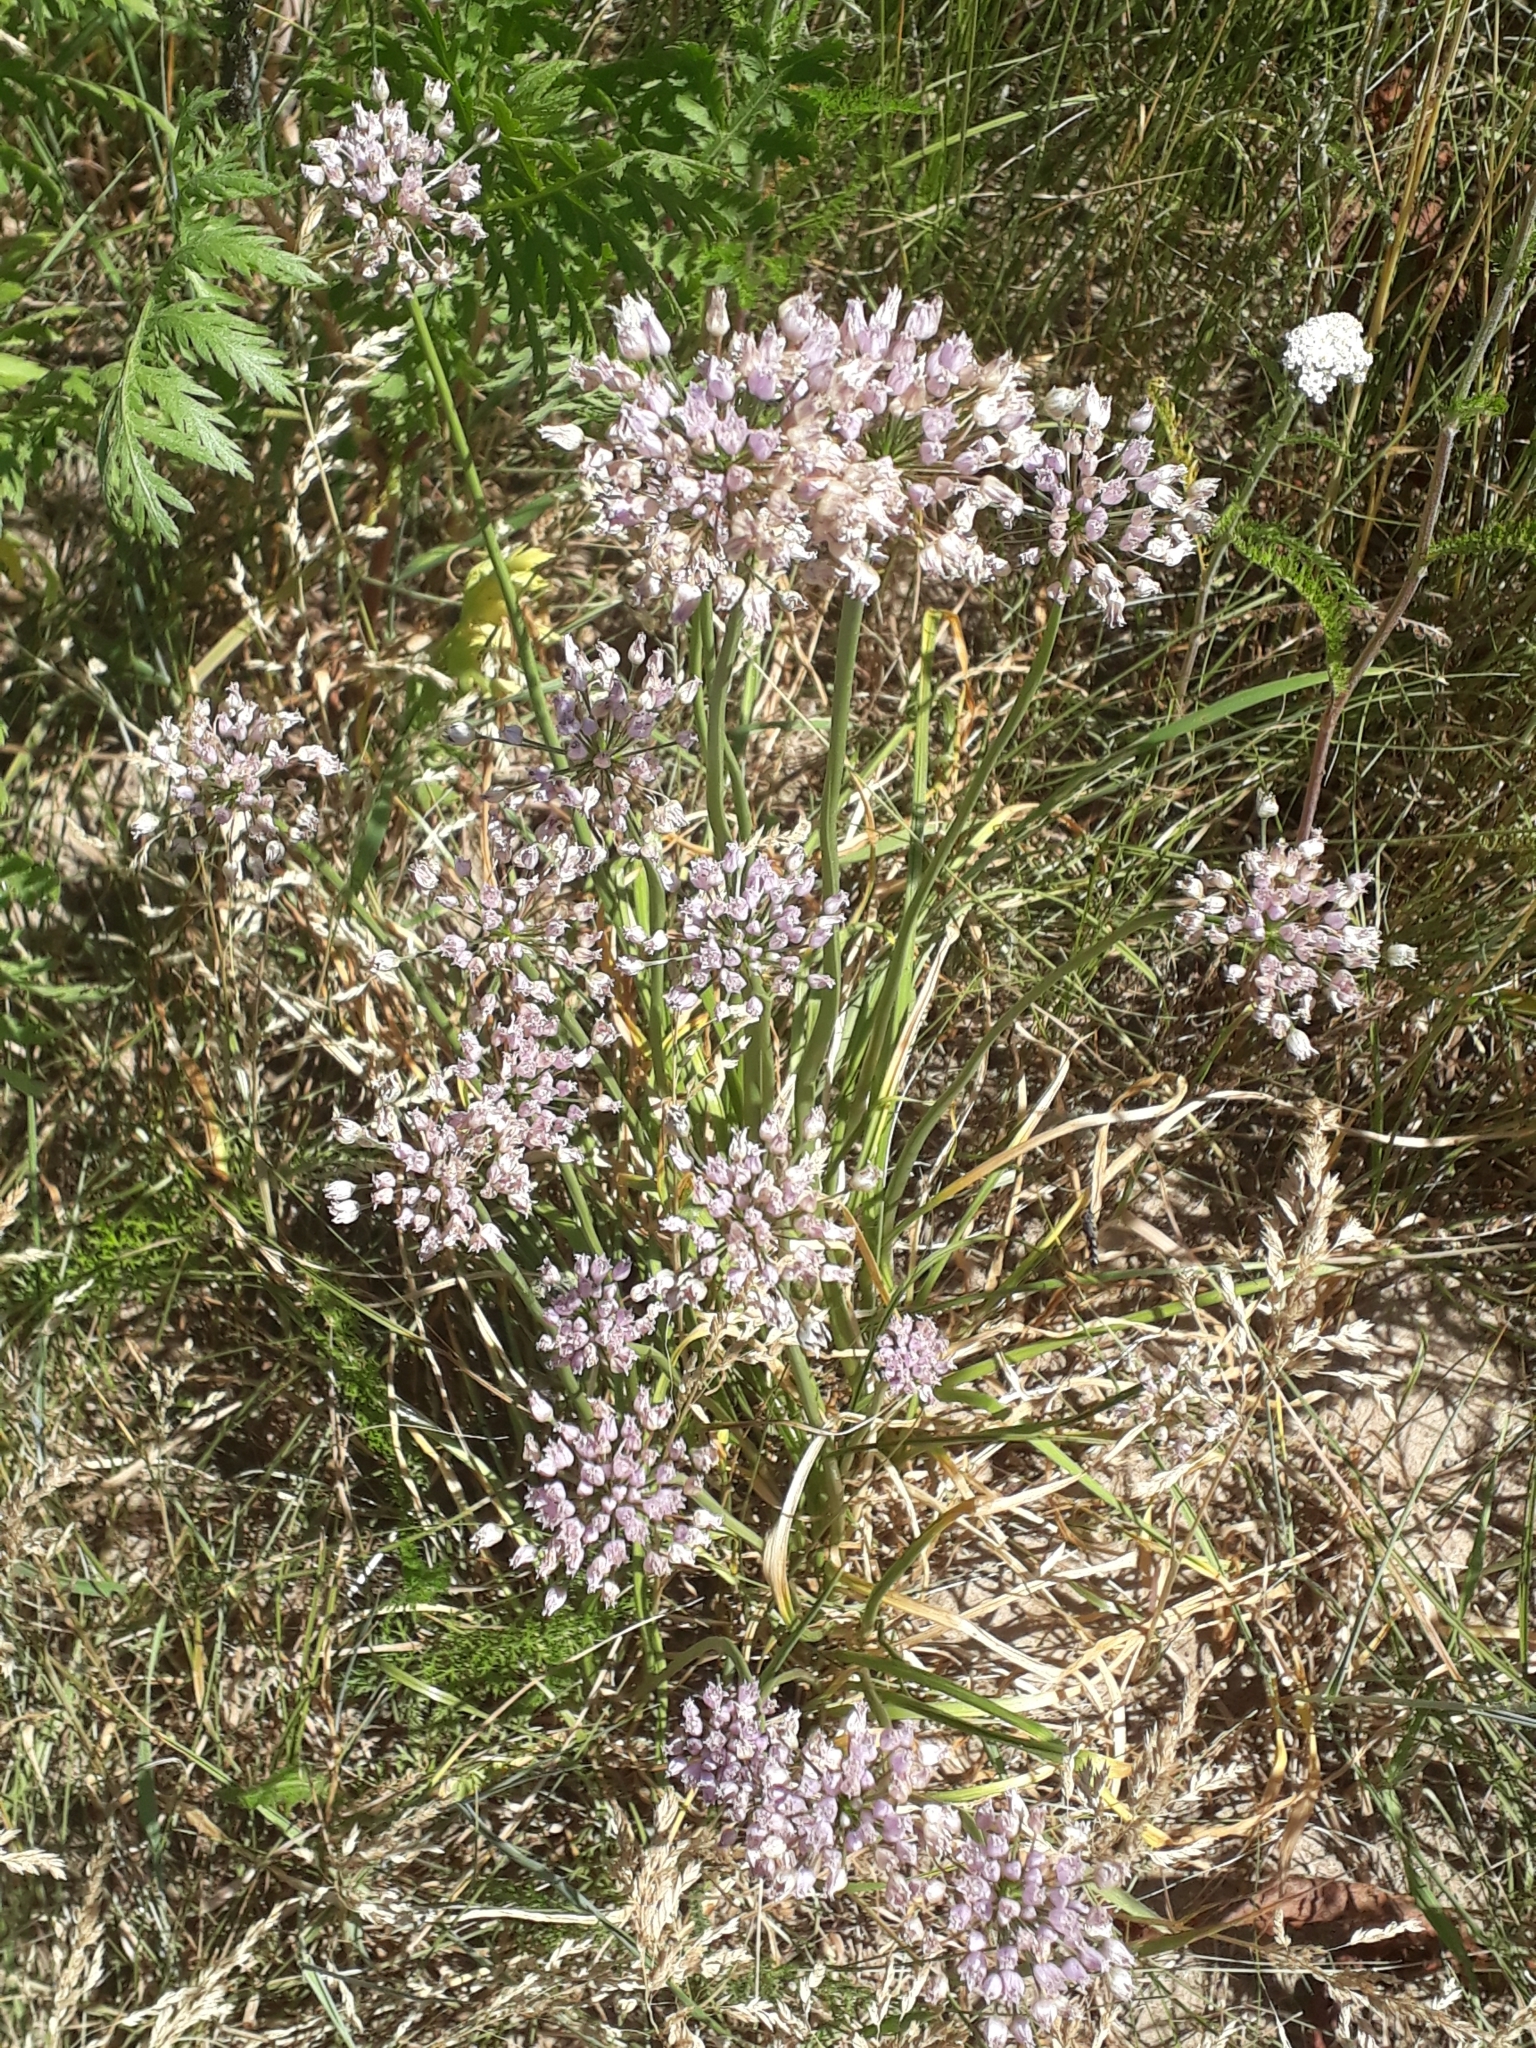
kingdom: Plantae
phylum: Tracheophyta
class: Liliopsida
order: Asparagales
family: Amaryllidaceae
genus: Allium
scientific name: Allium angulosum
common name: Mouse garlic
